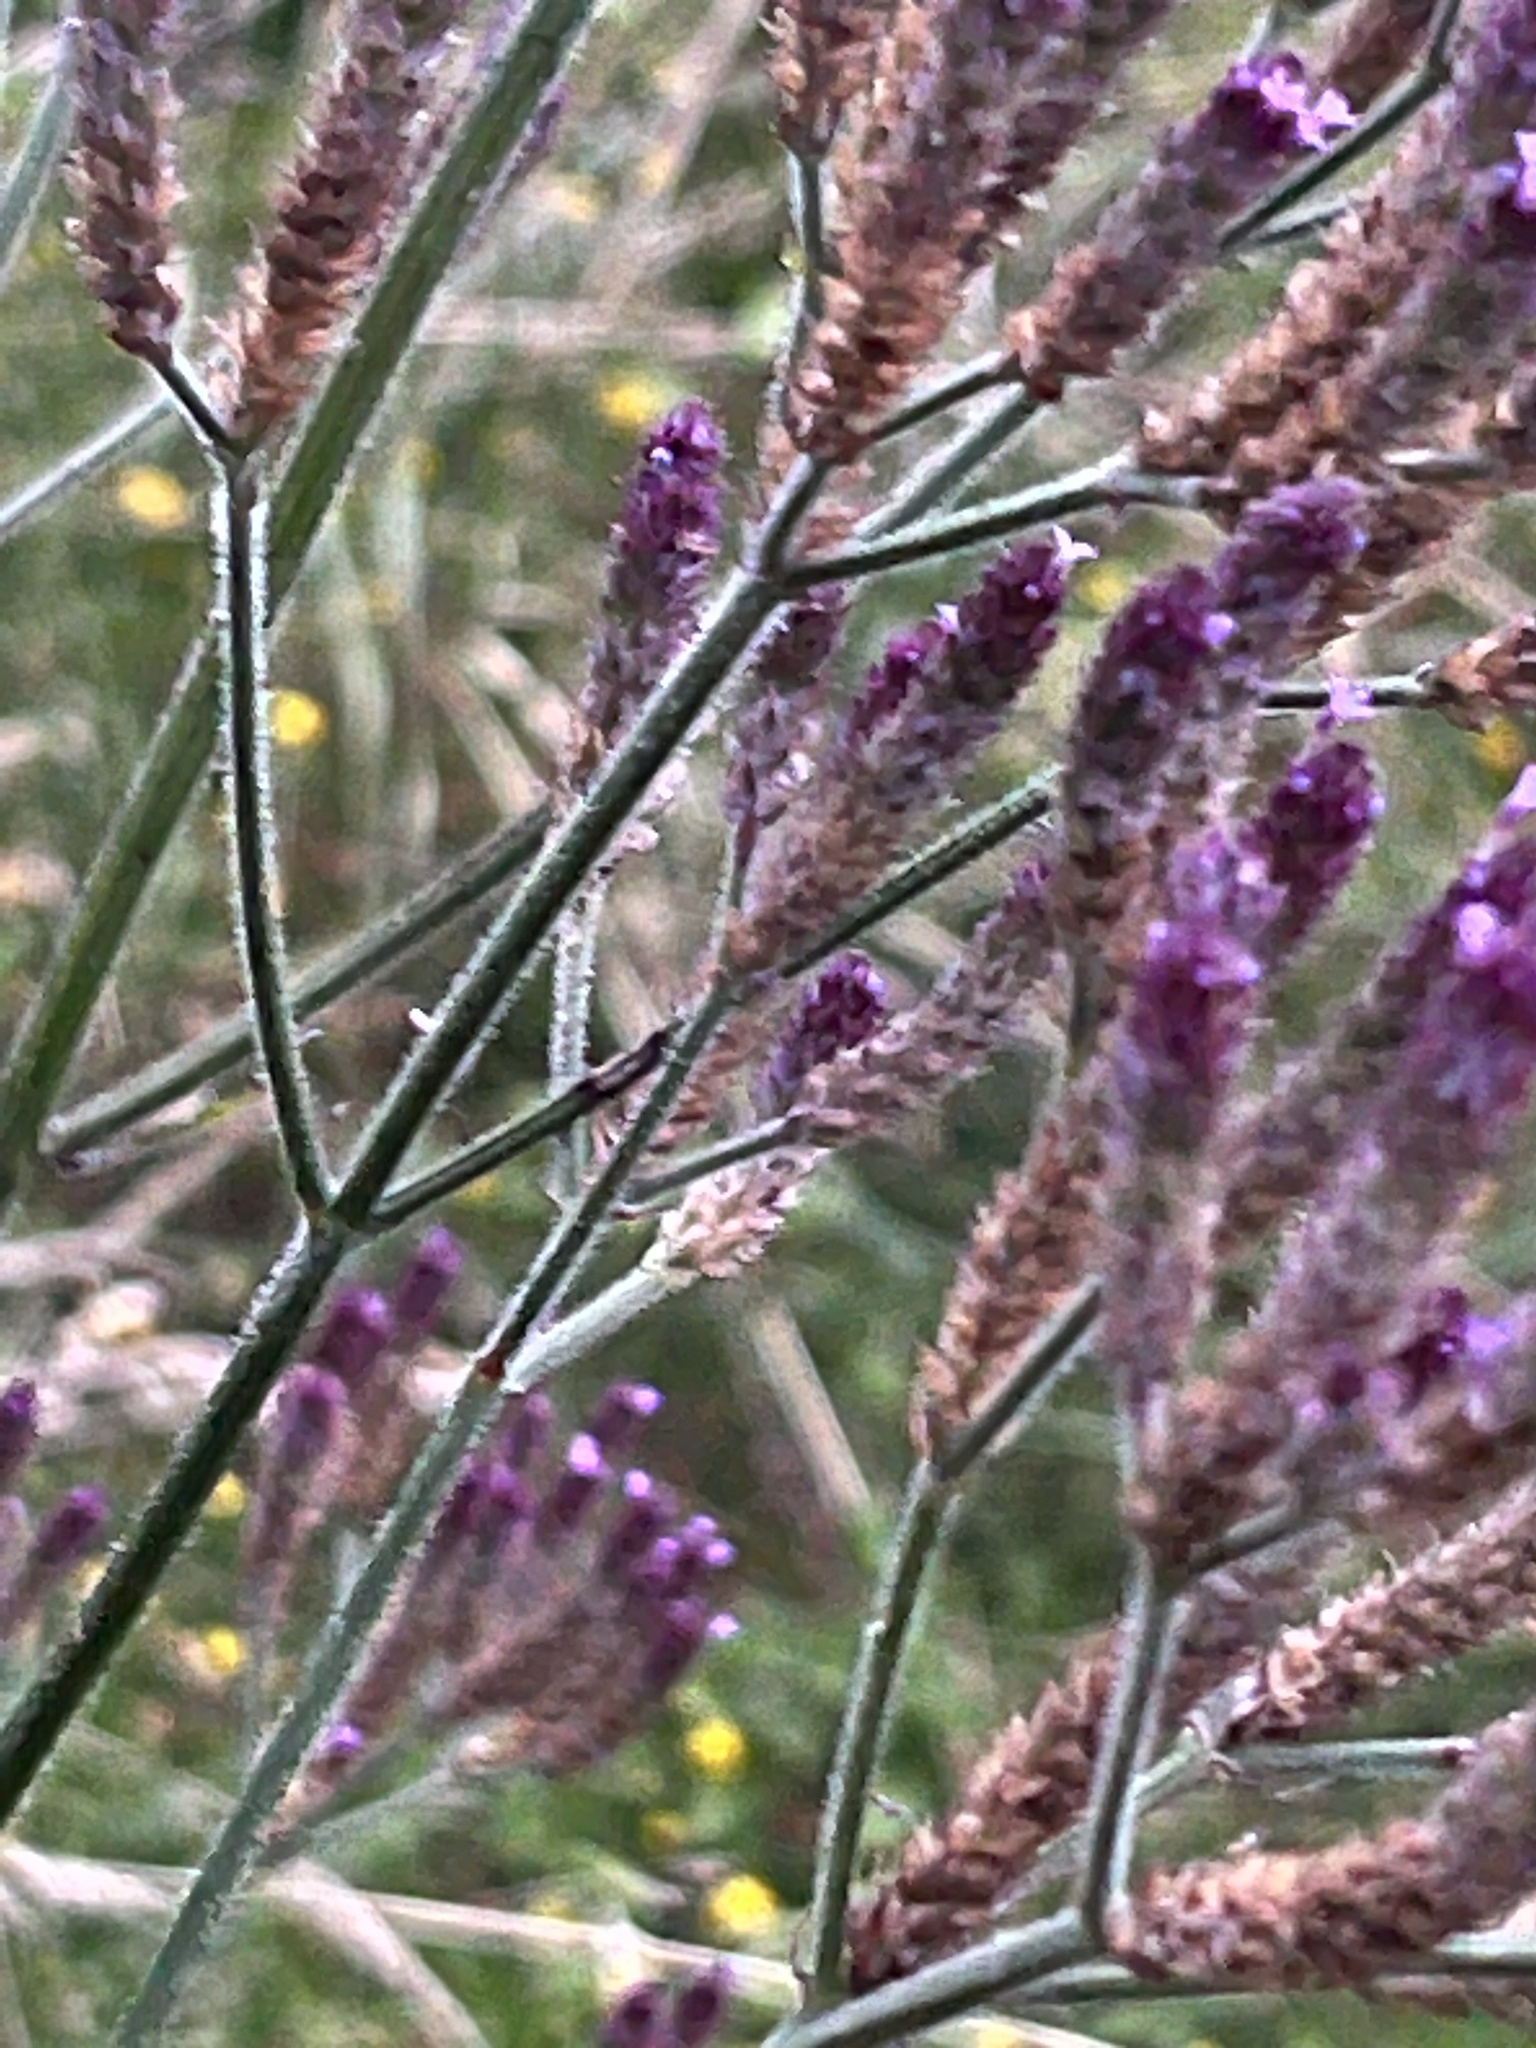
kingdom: Plantae
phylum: Tracheophyta
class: Magnoliopsida
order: Lamiales
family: Verbenaceae
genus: Verbena
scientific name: Verbena incompta
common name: Purpletop vervain
